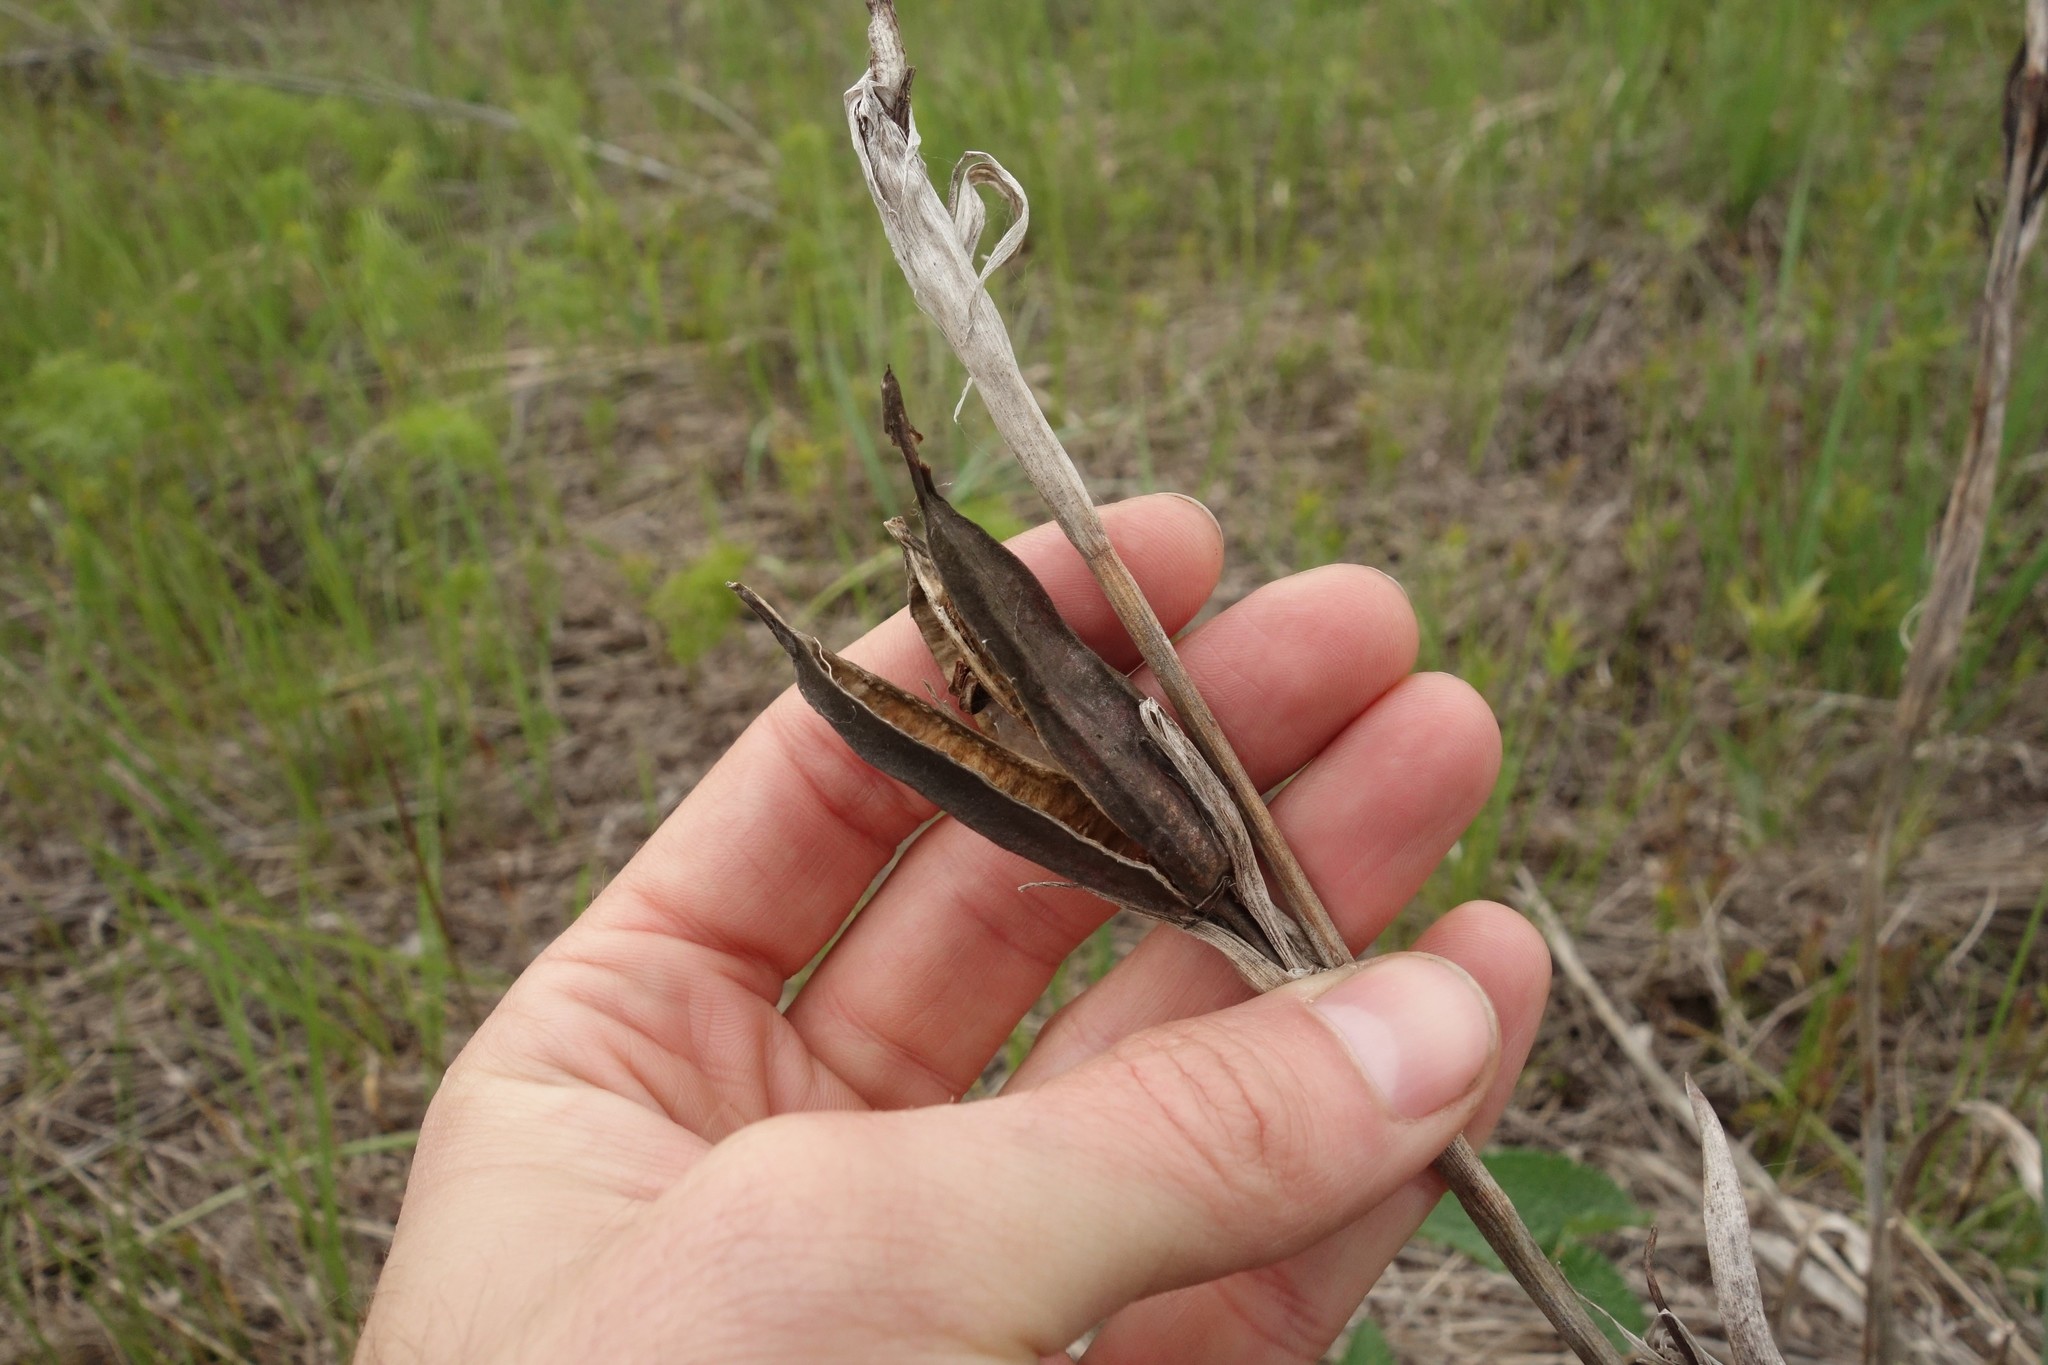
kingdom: Plantae
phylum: Tracheophyta
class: Liliopsida
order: Asparagales
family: Iridaceae
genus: Iris
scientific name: Iris halophila
